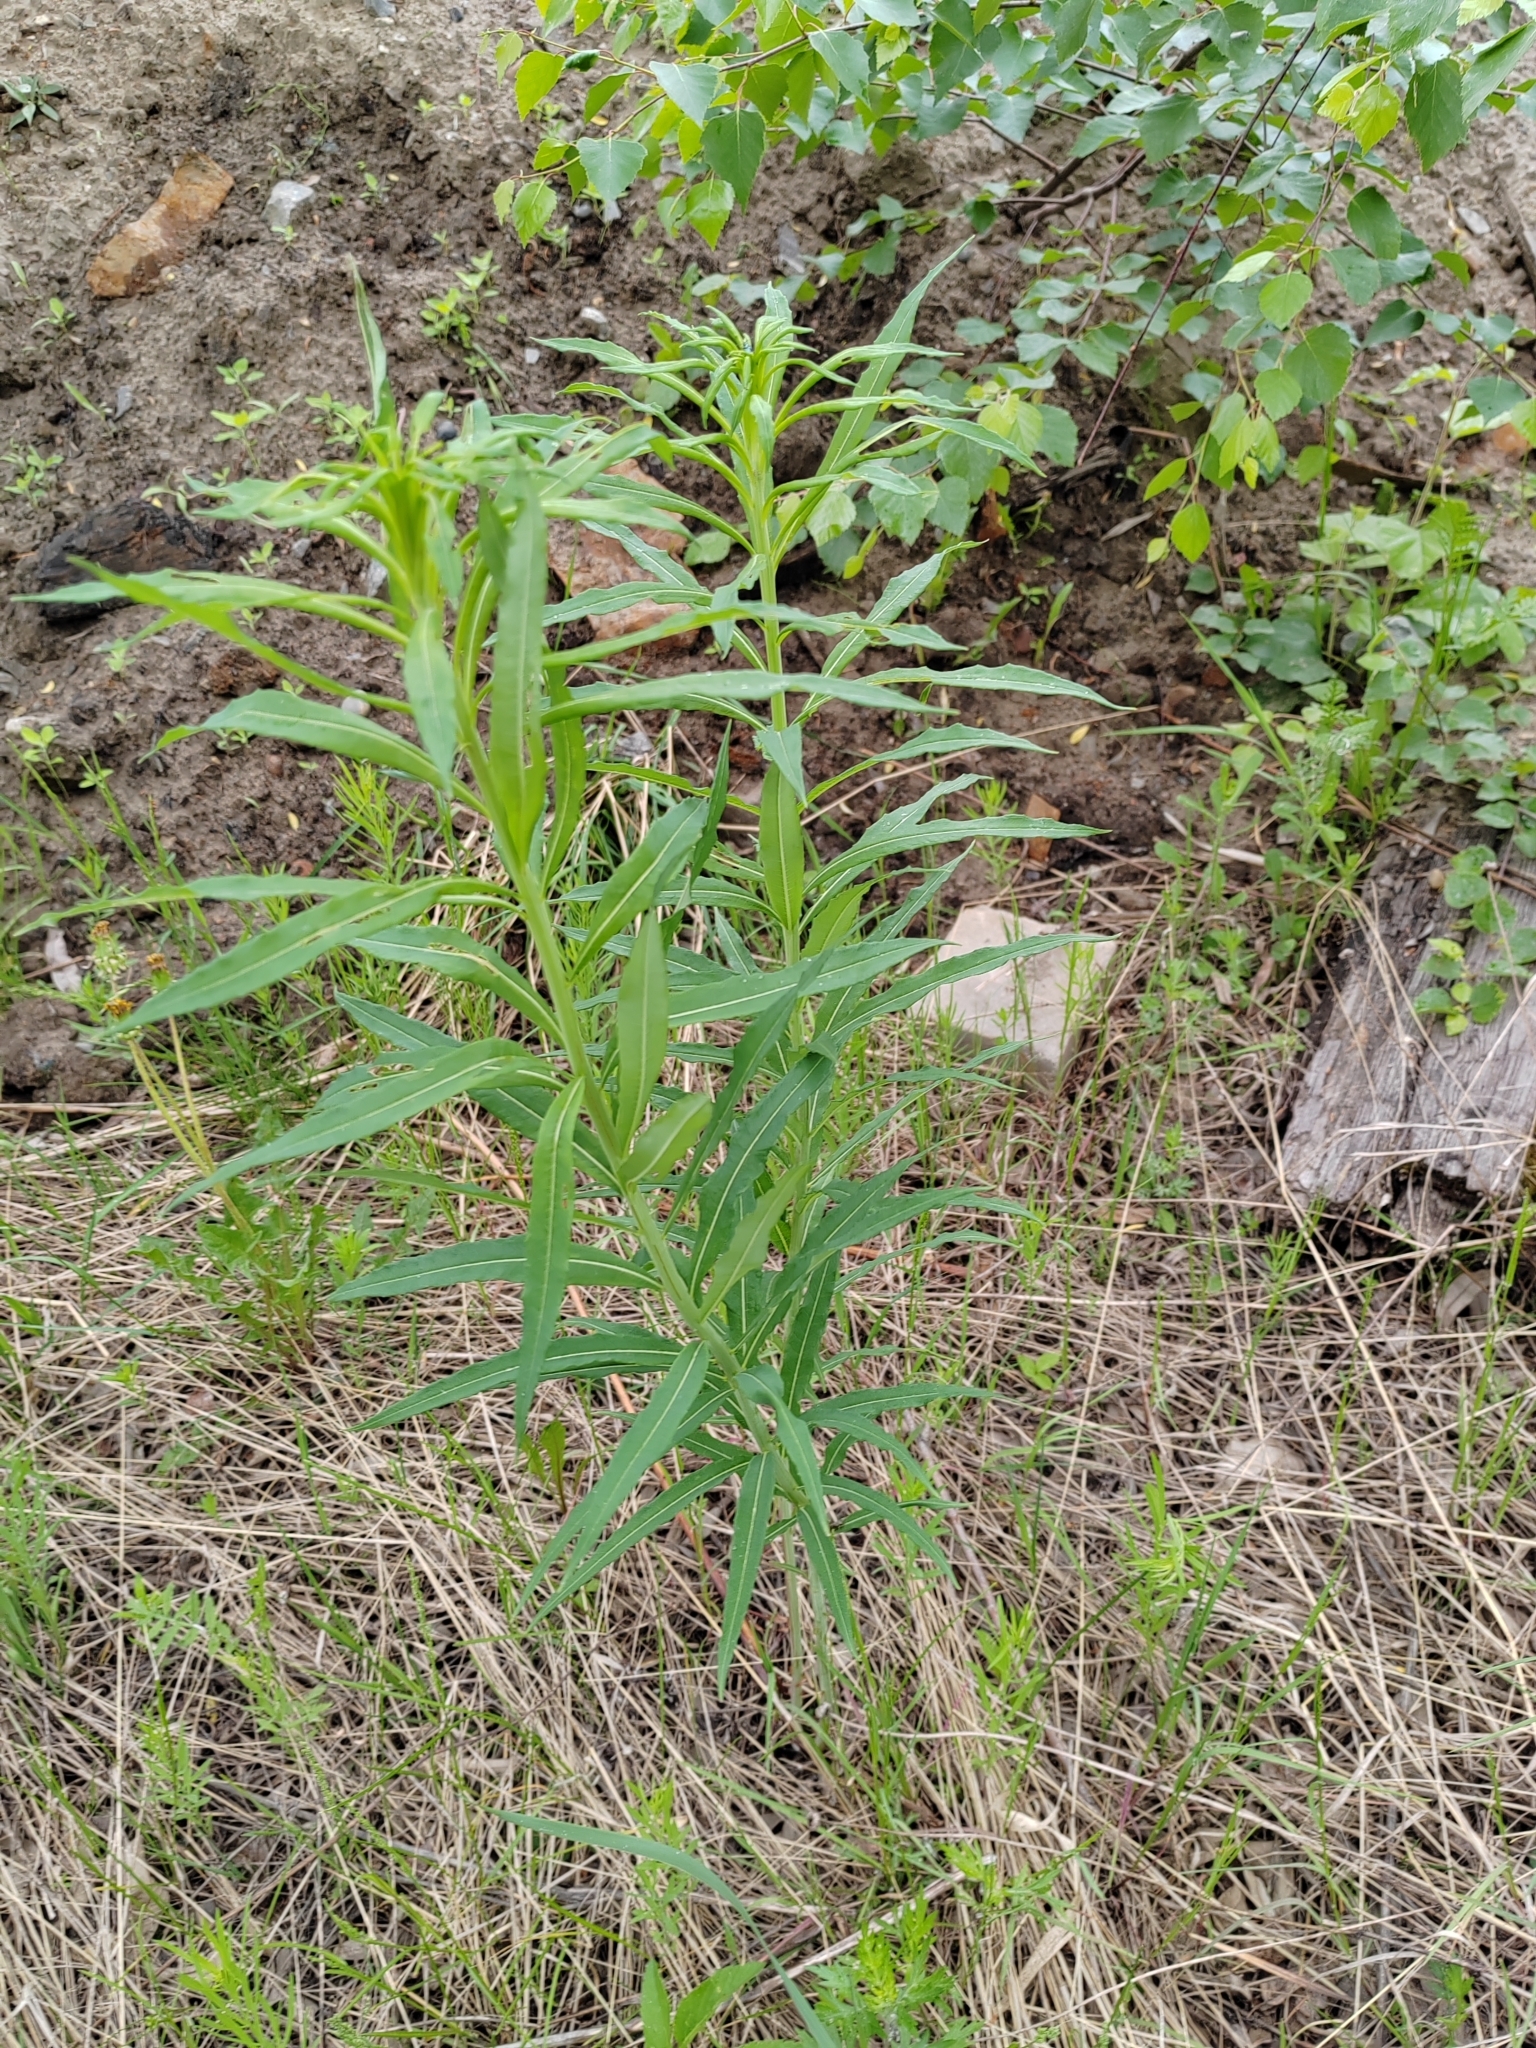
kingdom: Plantae
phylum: Tracheophyta
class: Magnoliopsida
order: Myrtales
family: Onagraceae
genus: Chamaenerion
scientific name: Chamaenerion angustifolium
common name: Fireweed
